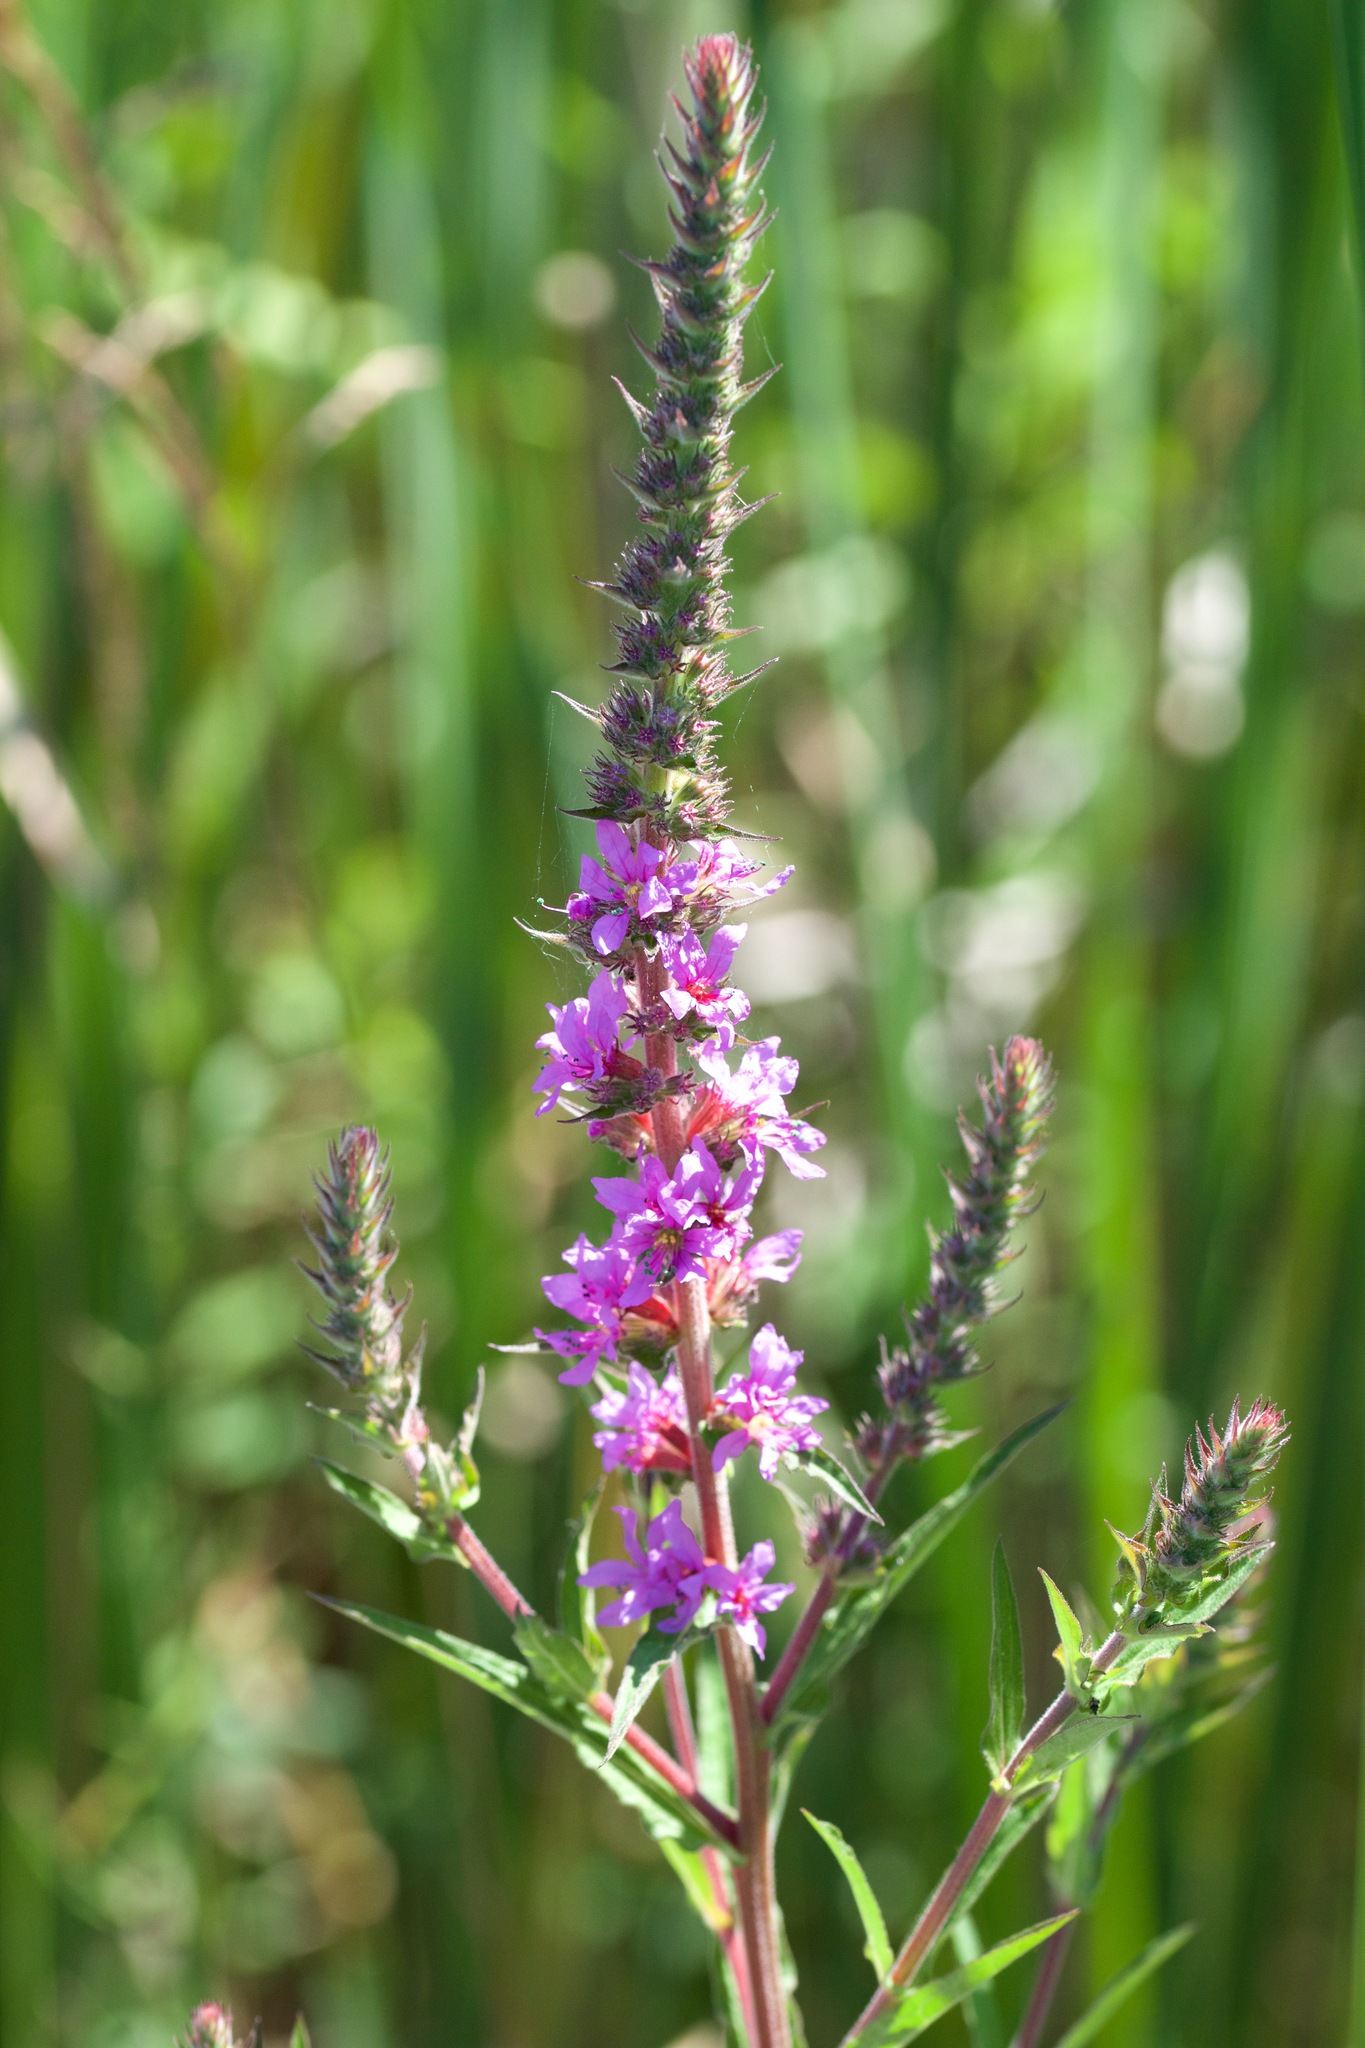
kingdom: Plantae
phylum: Tracheophyta
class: Magnoliopsida
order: Myrtales
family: Lythraceae
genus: Lythrum
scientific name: Lythrum salicaria
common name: Purple loosestrife
